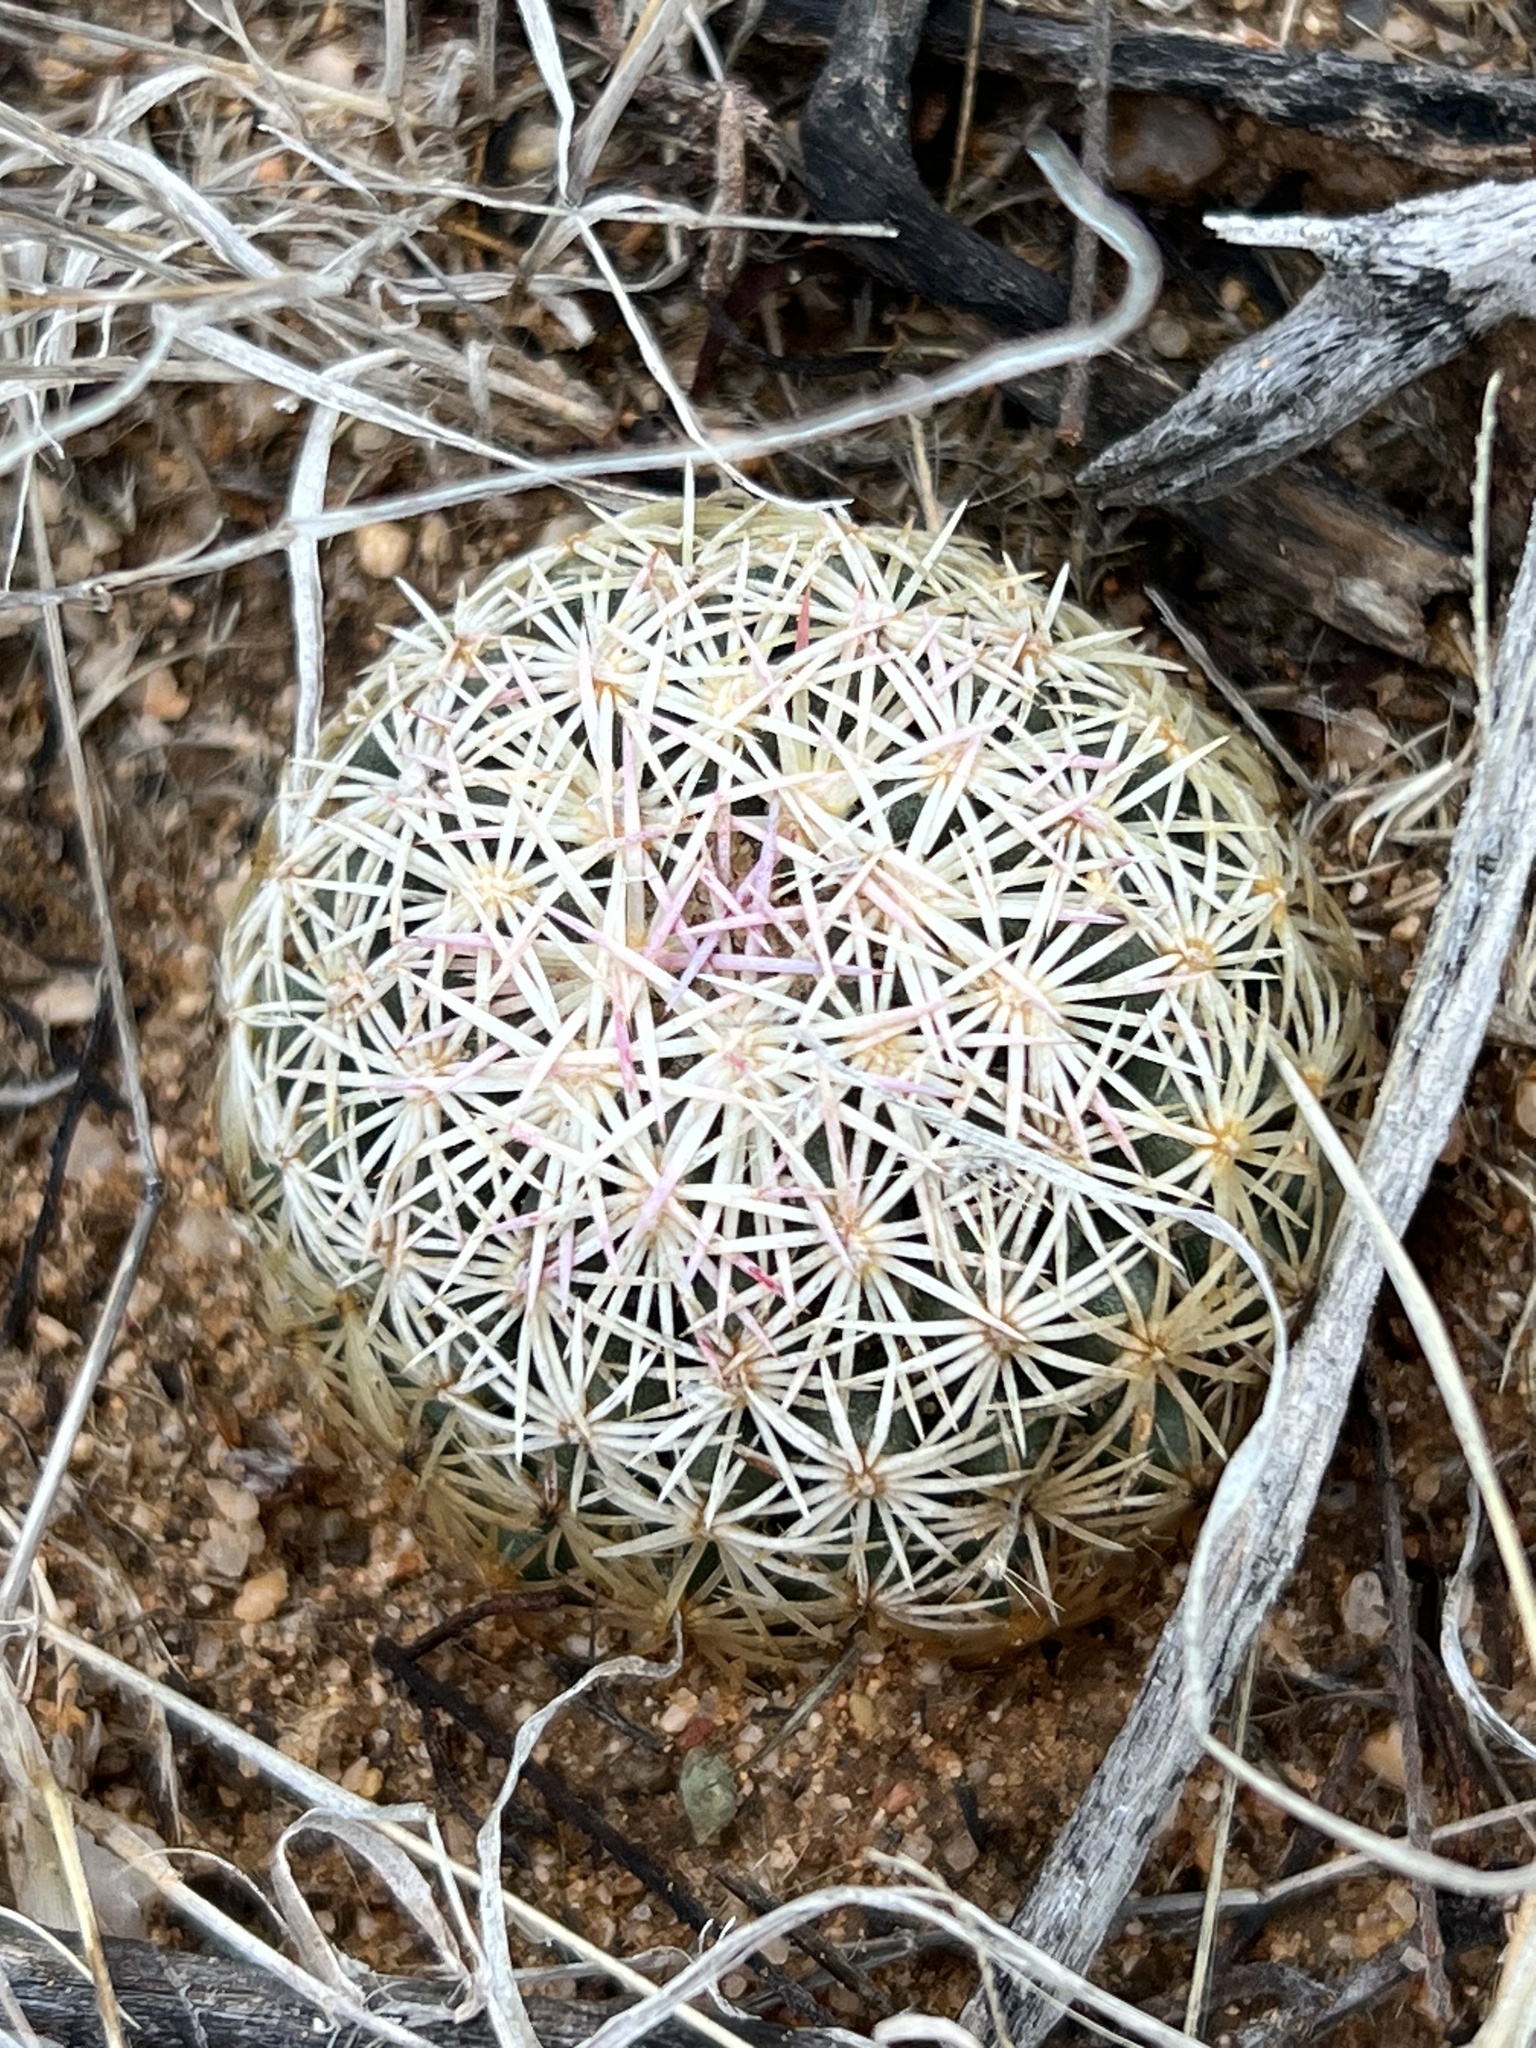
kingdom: Plantae
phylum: Tracheophyta
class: Magnoliopsida
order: Caryophyllales
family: Cactaceae
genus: Sclerocactus
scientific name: Sclerocactus johnsonii
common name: Eight-spine fishhook cactus
